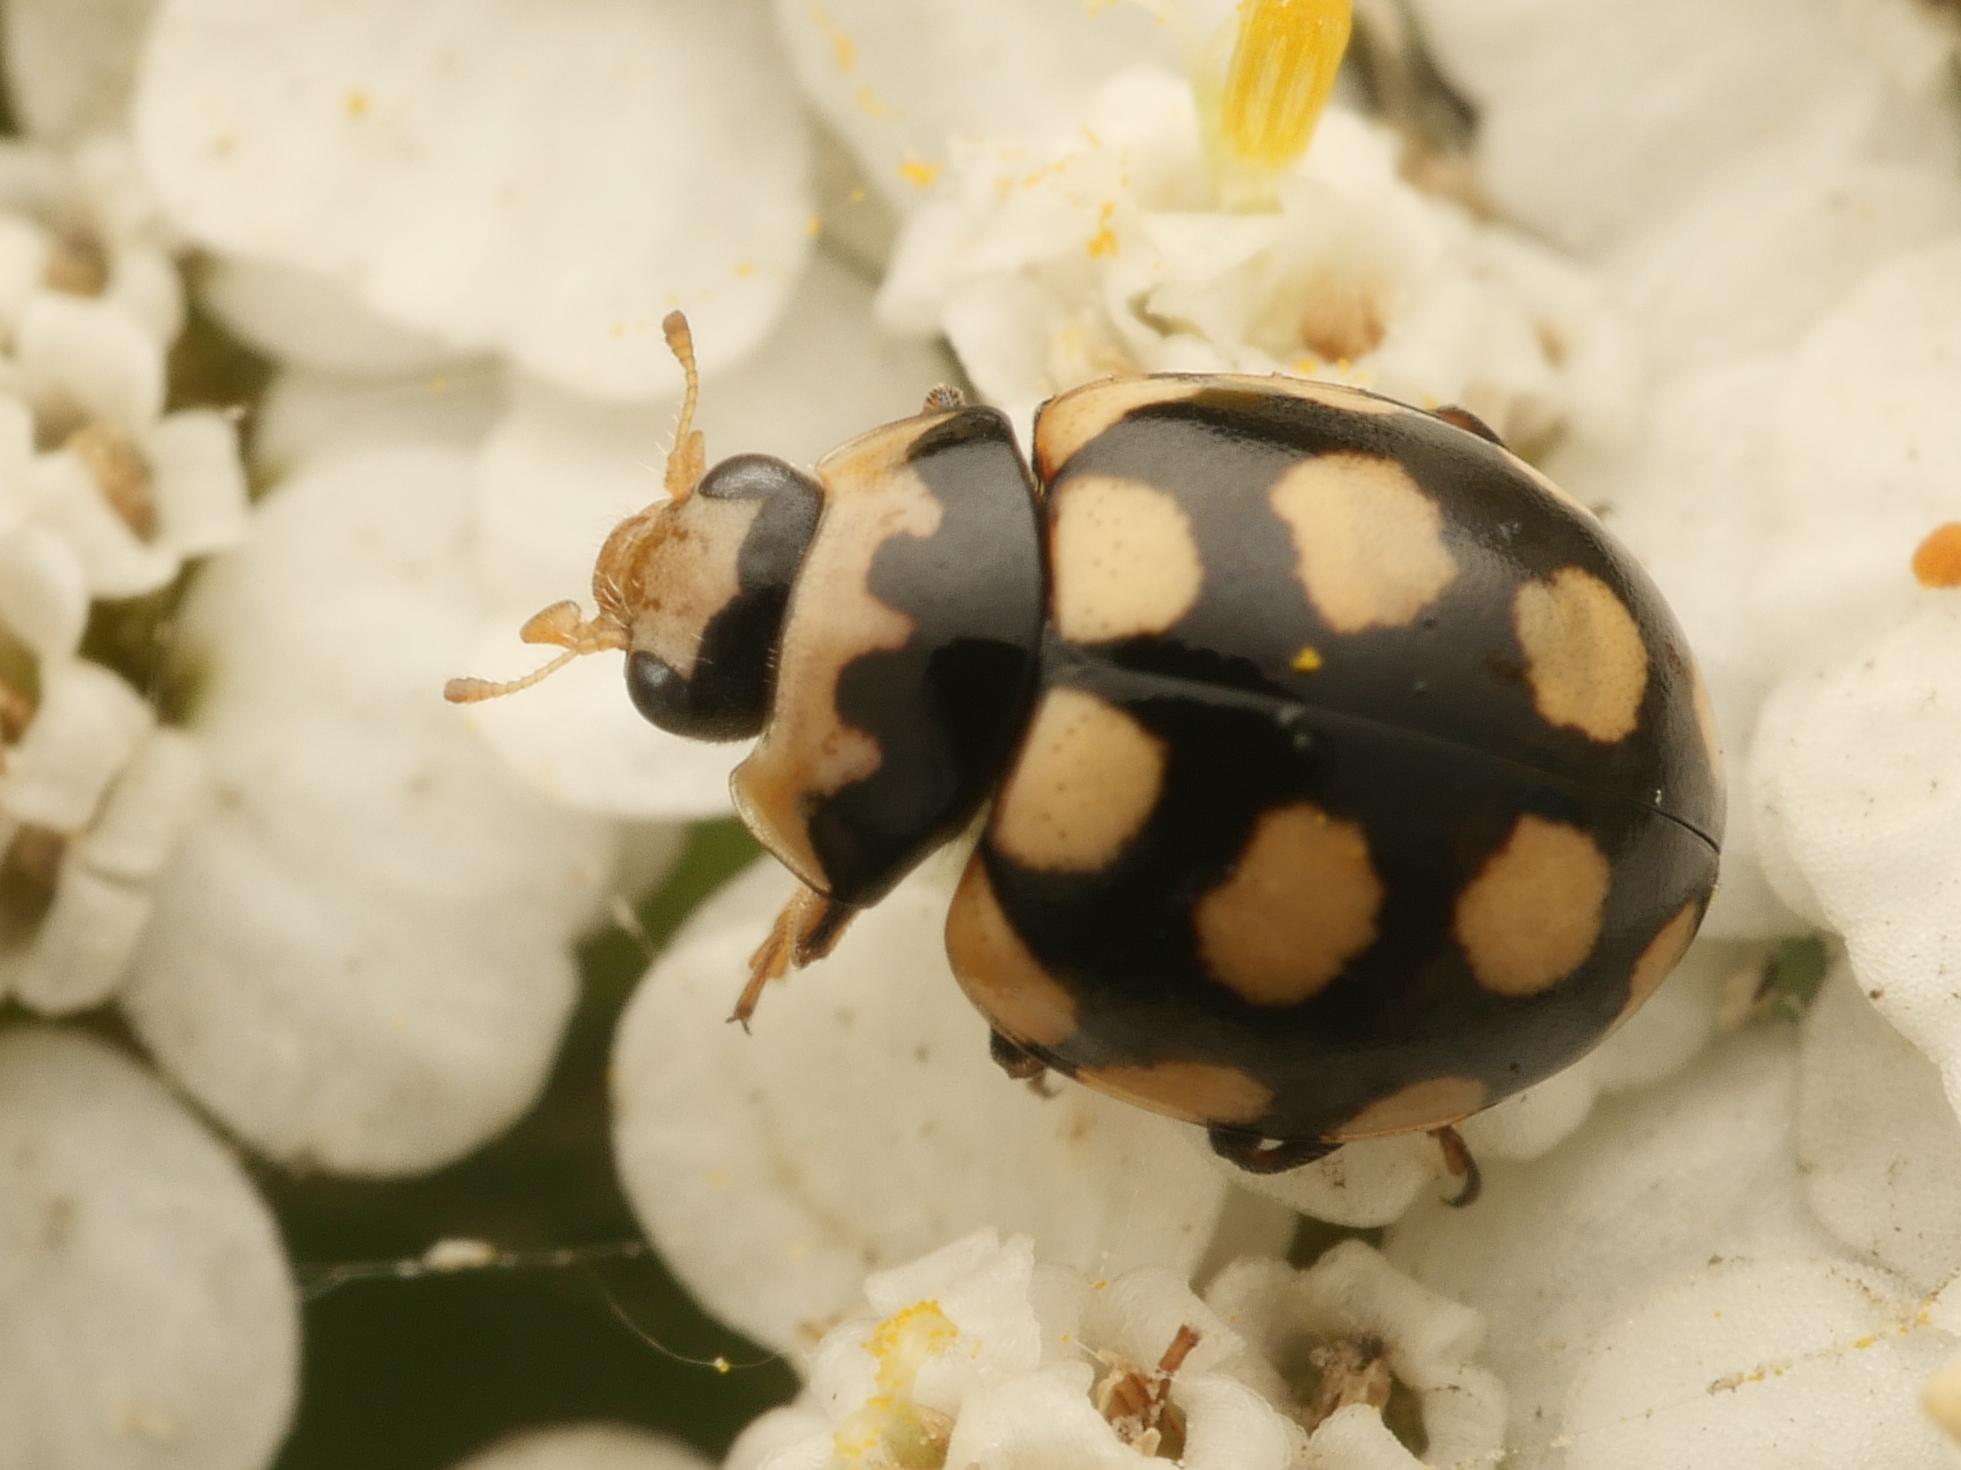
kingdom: Animalia
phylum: Arthropoda
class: Insecta
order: Coleoptera
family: Coccinellidae
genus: Coccinula
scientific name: Coccinula quatuordecimpustulata
